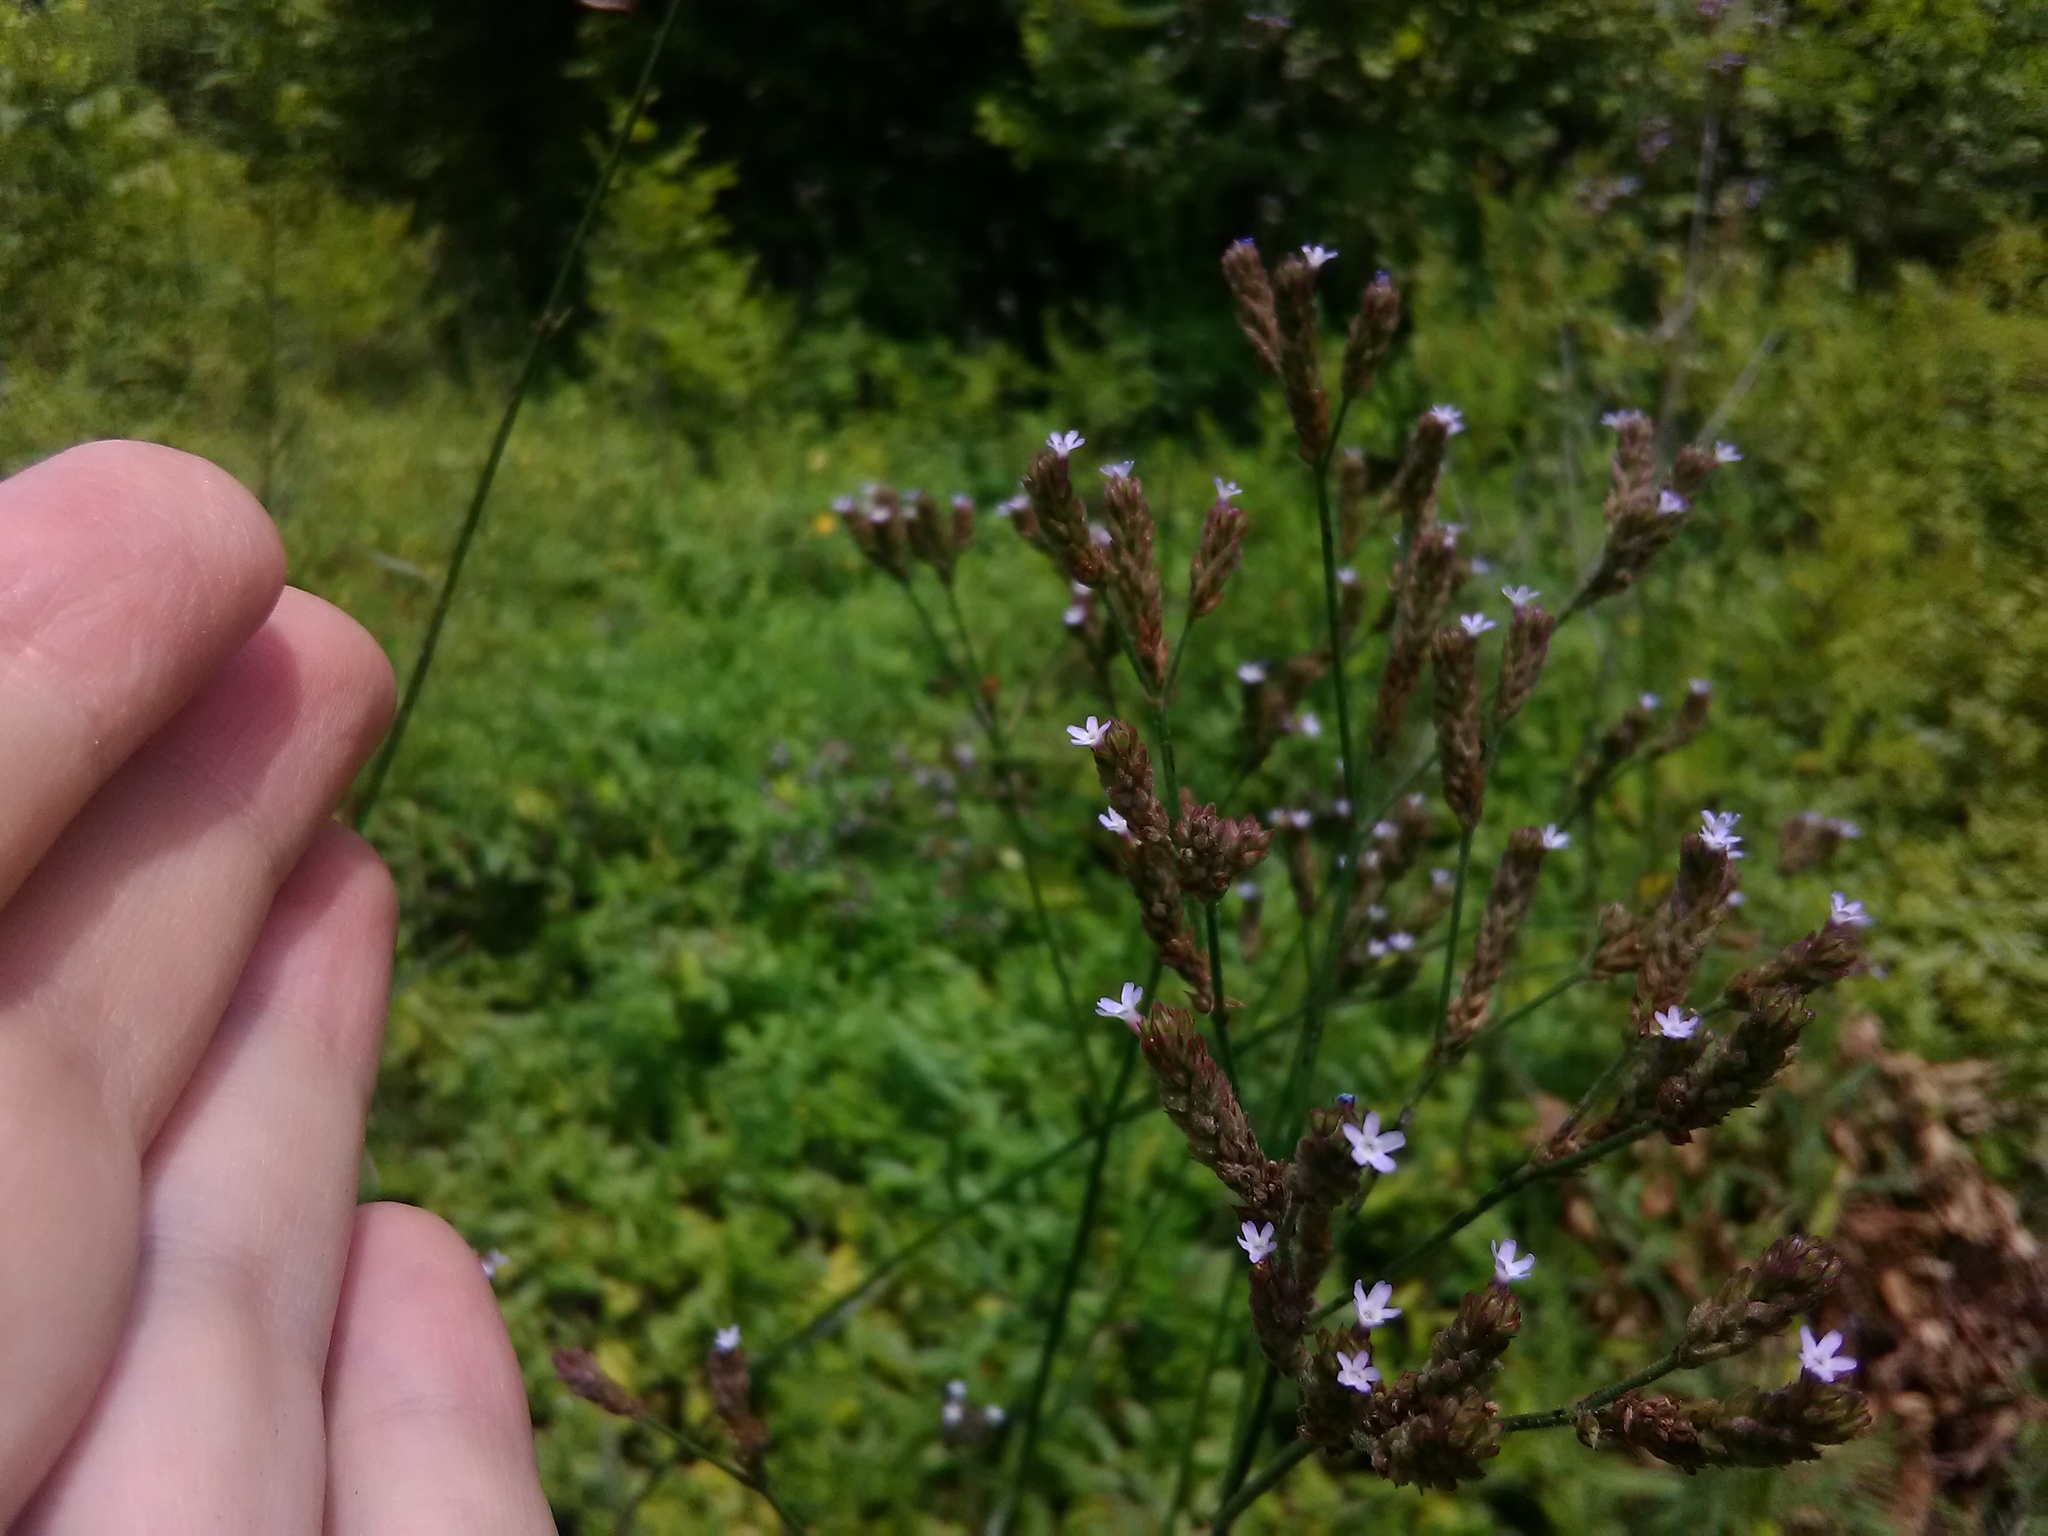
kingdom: Plantae
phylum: Tracheophyta
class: Magnoliopsida
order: Lamiales
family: Verbenaceae
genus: Verbena
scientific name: Verbena brasiliensis
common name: Brazilian vervain
